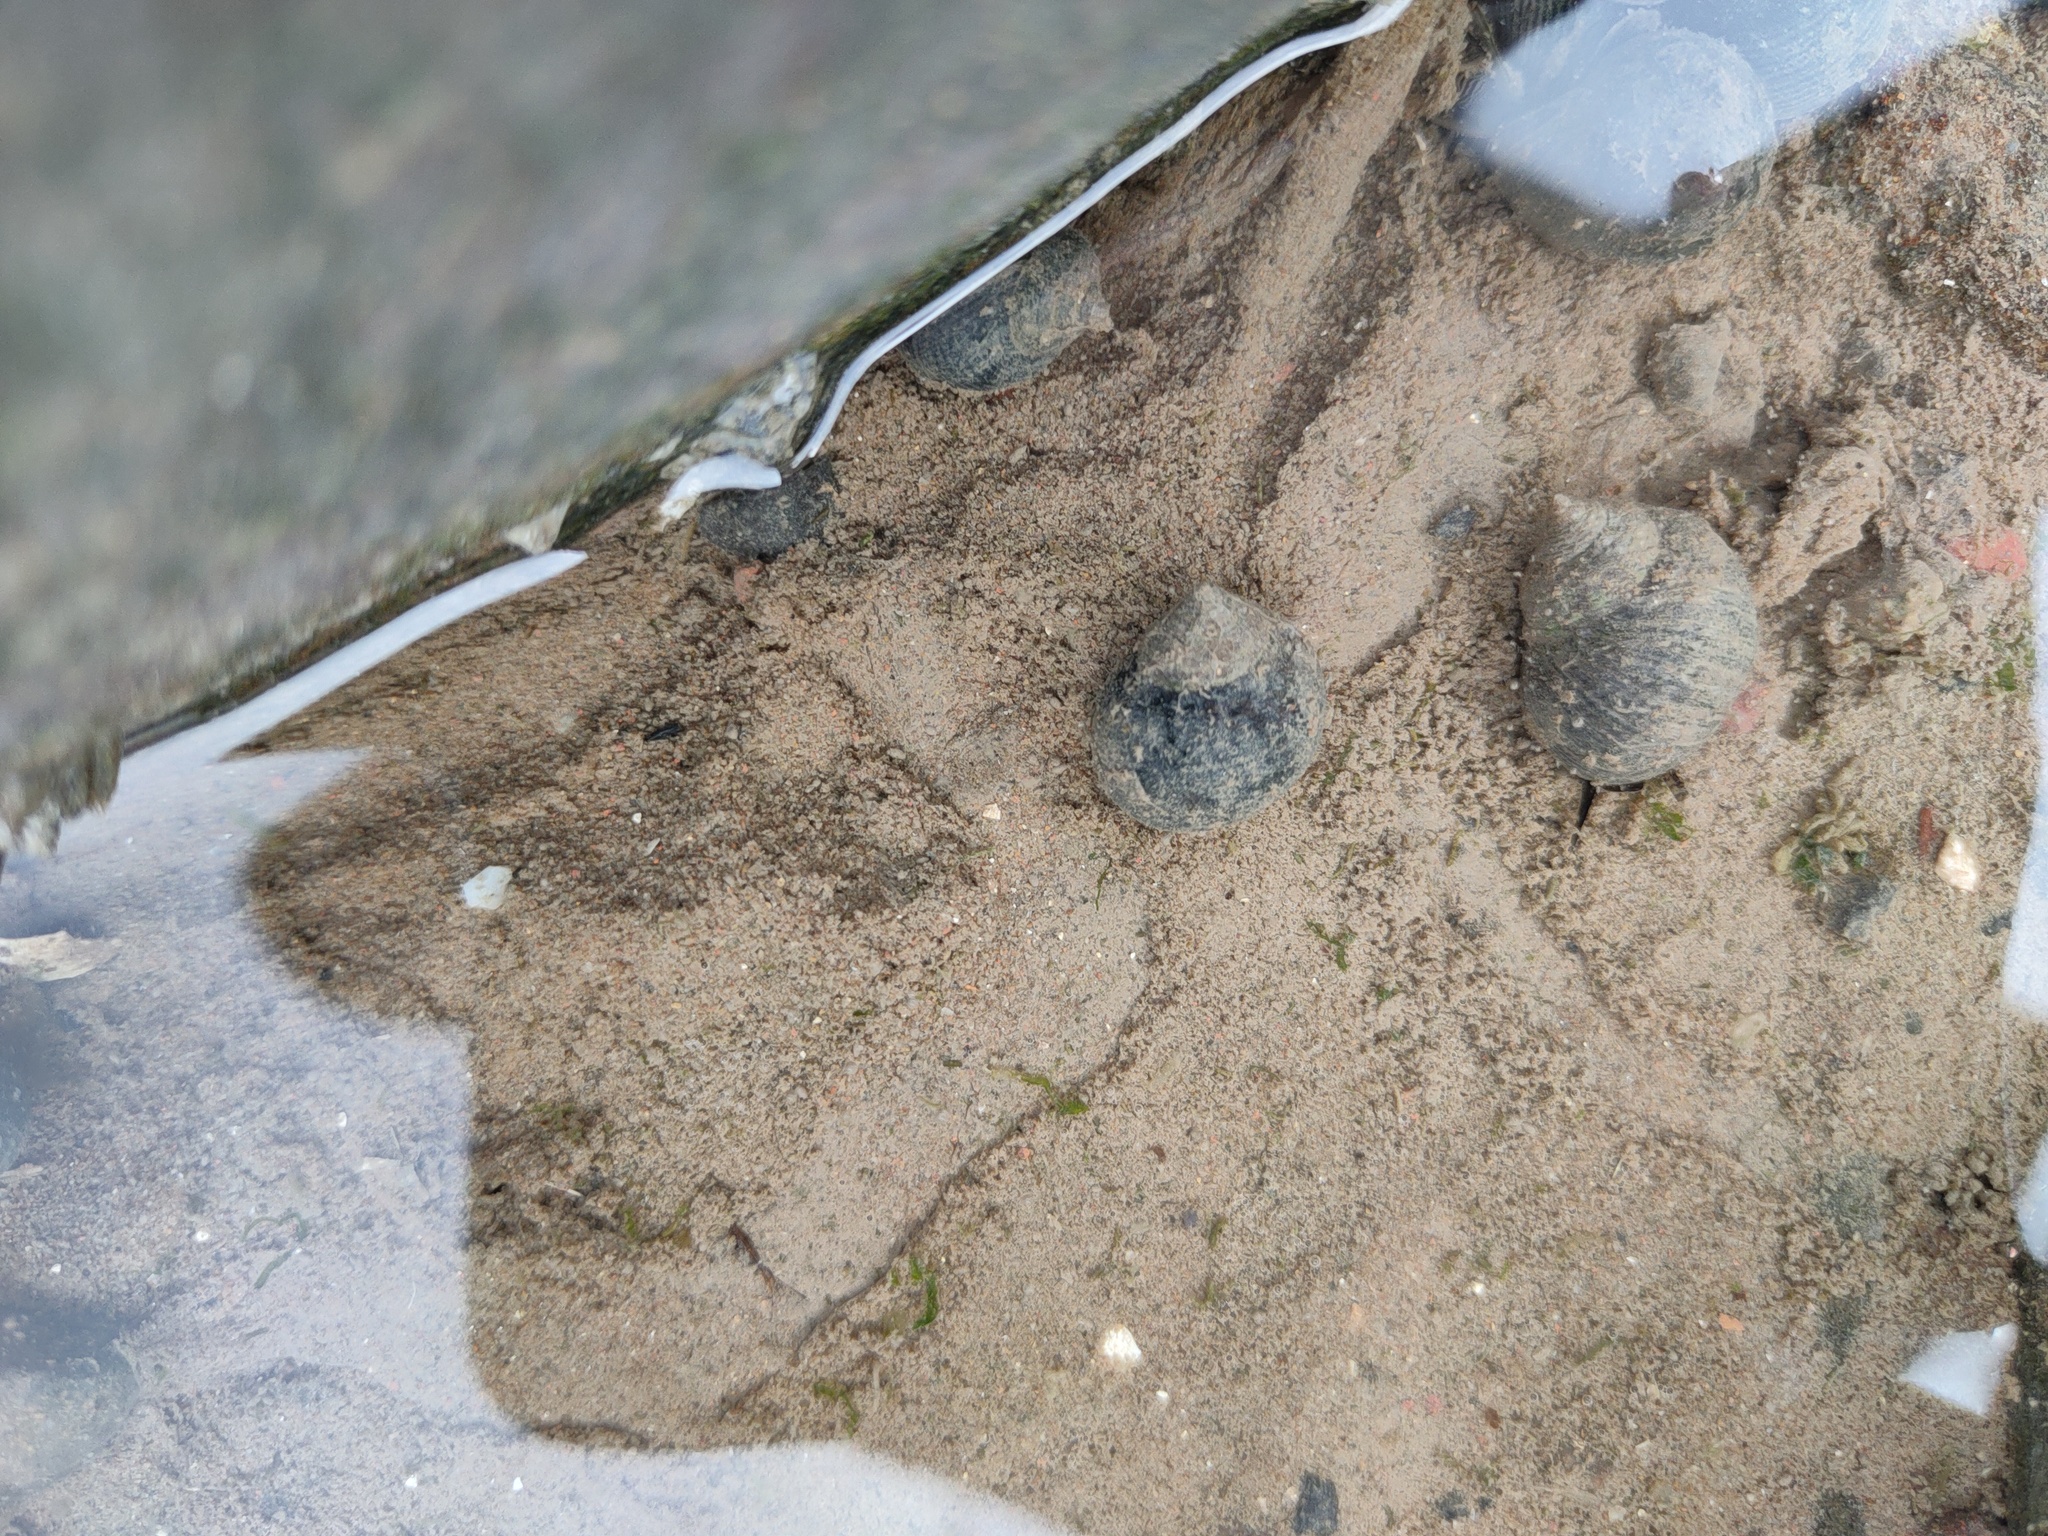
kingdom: Animalia
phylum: Mollusca
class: Gastropoda
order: Littorinimorpha
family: Littorinidae
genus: Littorina
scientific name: Littorina littorea
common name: Common periwinkle
